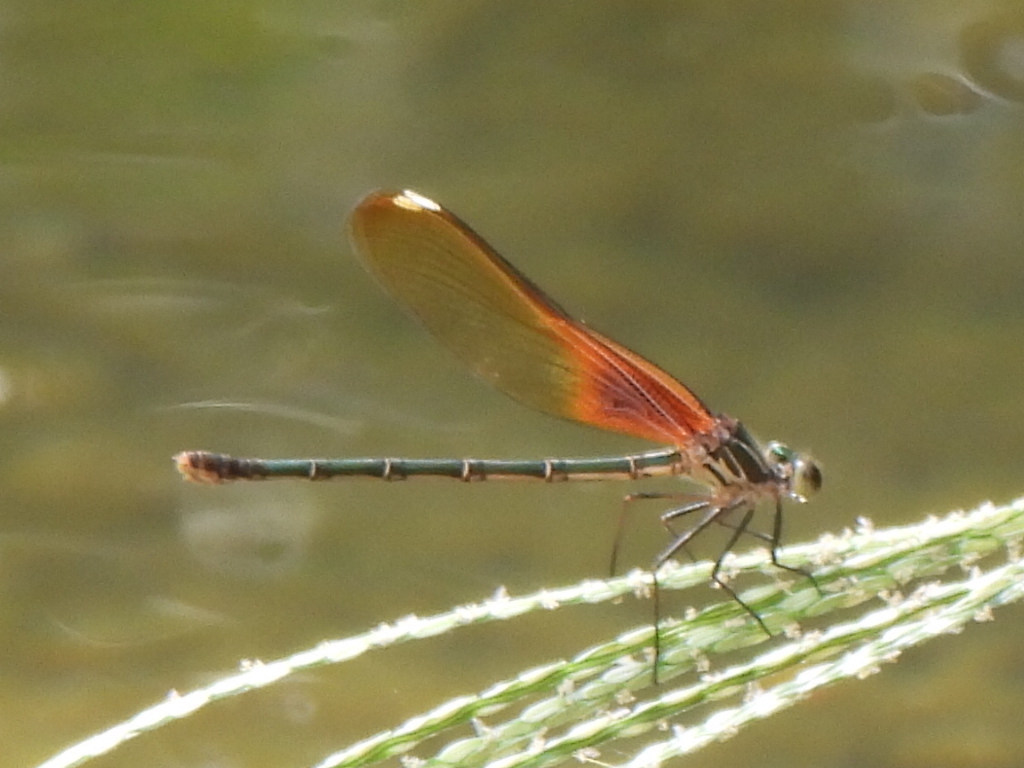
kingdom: Animalia
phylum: Arthropoda
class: Insecta
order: Odonata
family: Calopterygidae
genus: Hetaerina
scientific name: Hetaerina americana
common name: American rubyspot
